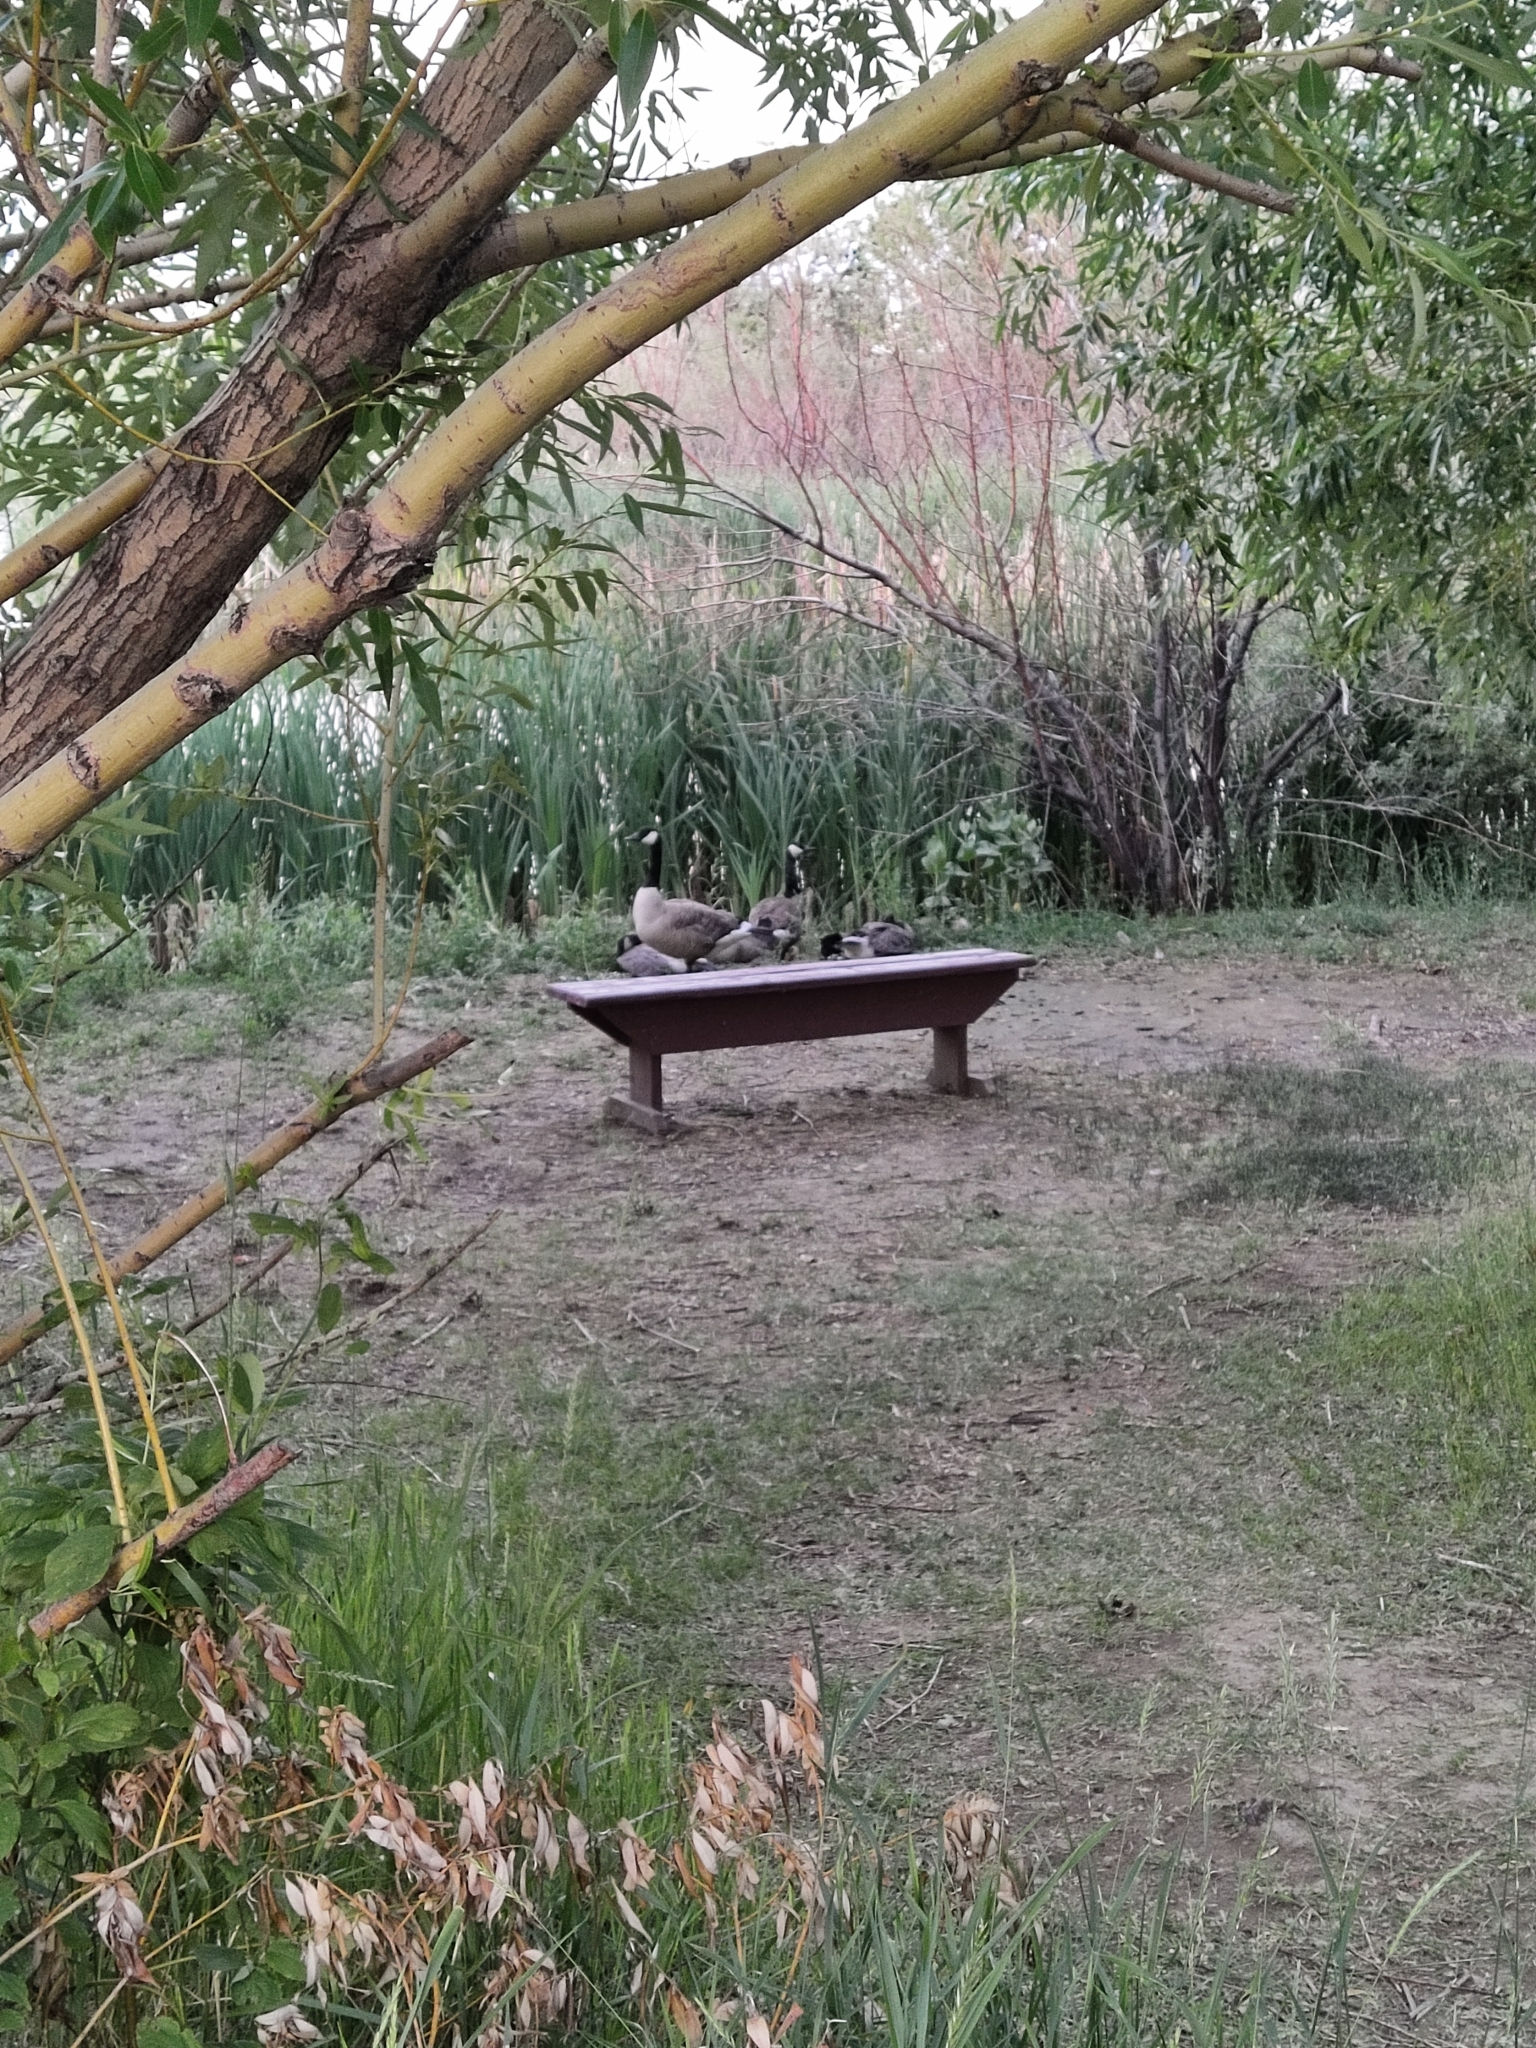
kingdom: Animalia
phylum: Chordata
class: Aves
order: Anseriformes
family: Anatidae
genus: Branta
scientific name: Branta canadensis
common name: Canada goose
